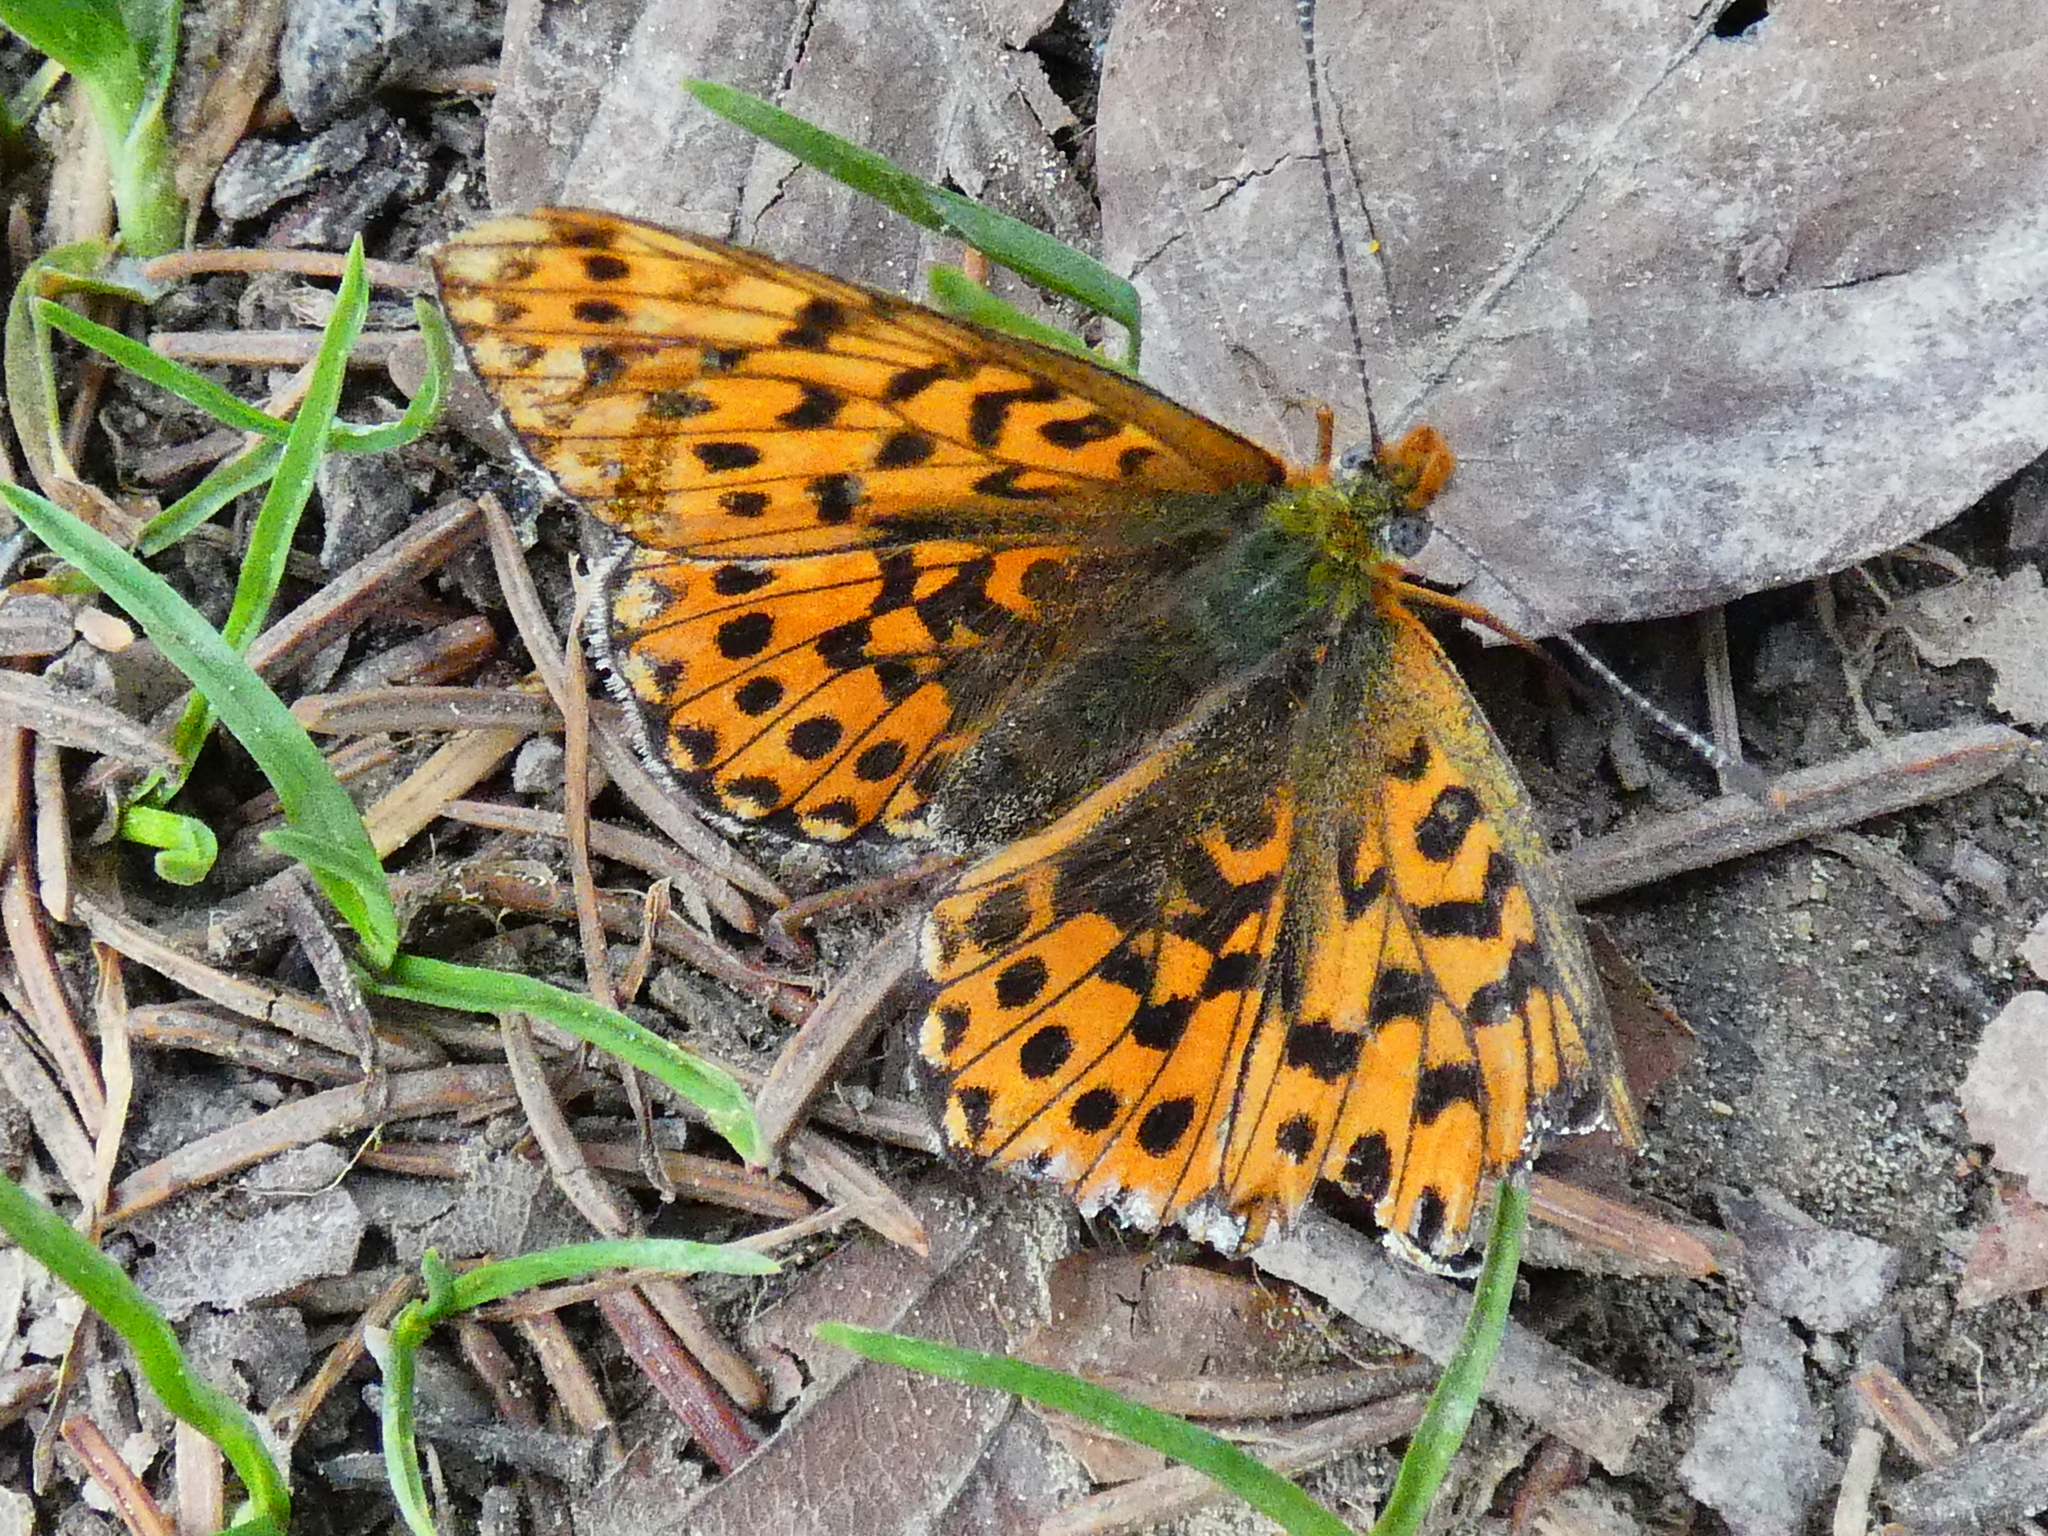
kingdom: Animalia
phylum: Arthropoda
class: Insecta
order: Lepidoptera
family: Nymphalidae
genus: Clossiana
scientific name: Clossiana euphrosyne
